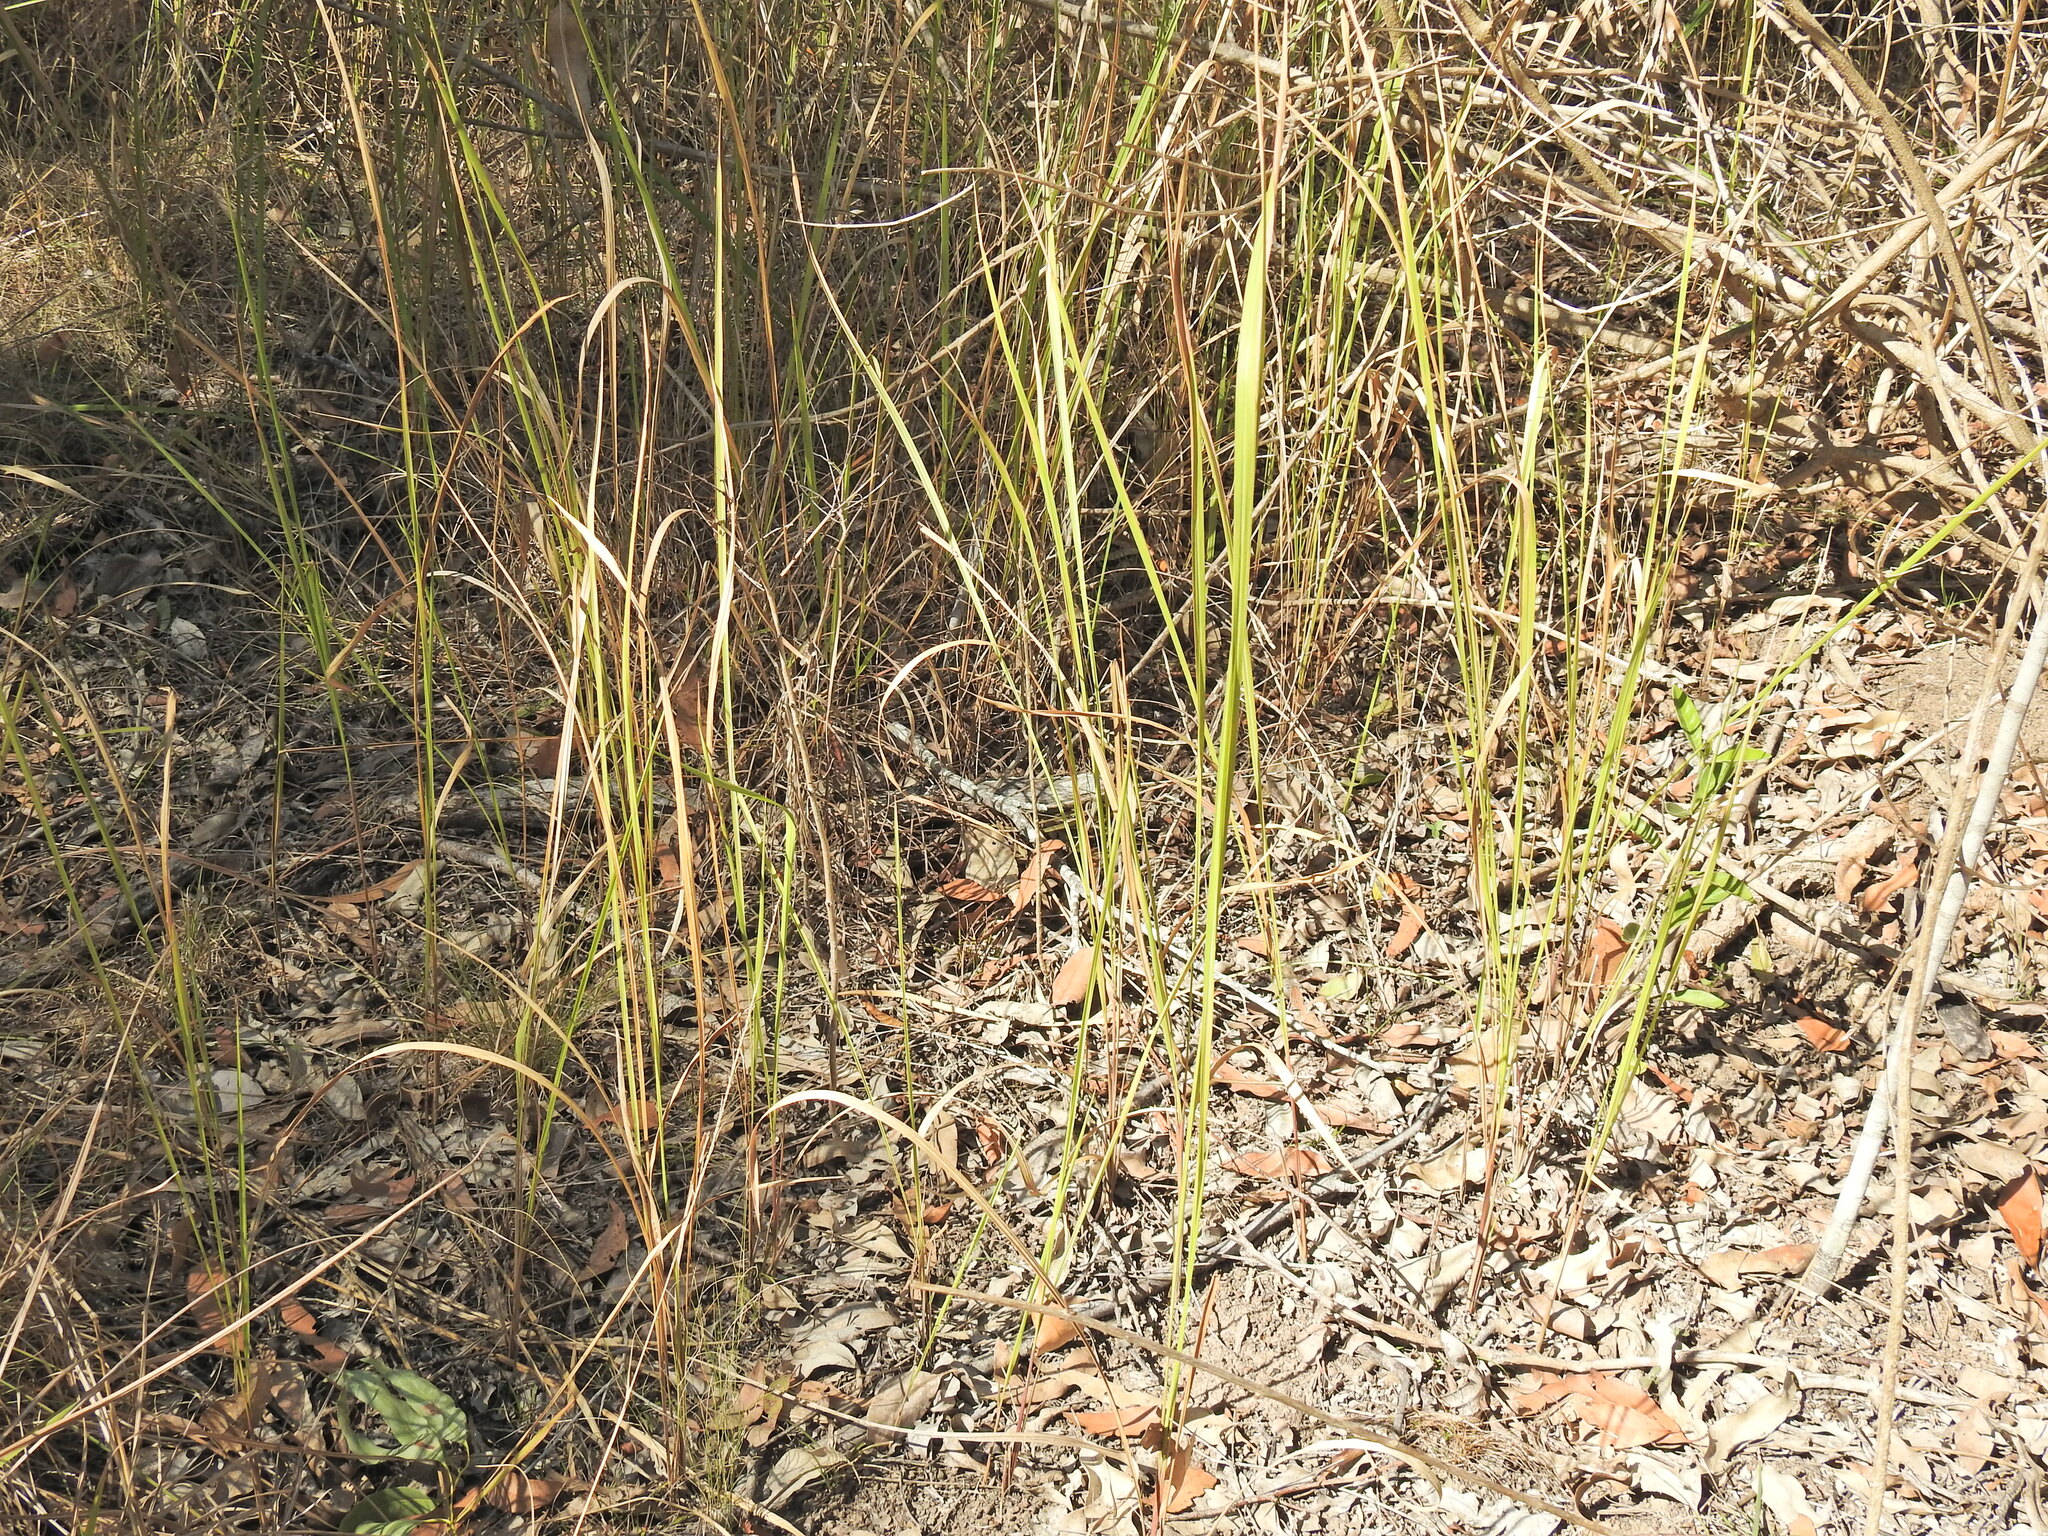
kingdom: Plantae
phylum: Tracheophyta
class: Liliopsida
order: Poales
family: Poaceae
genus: Imperata
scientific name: Imperata cylindrica
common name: Cogongrass
